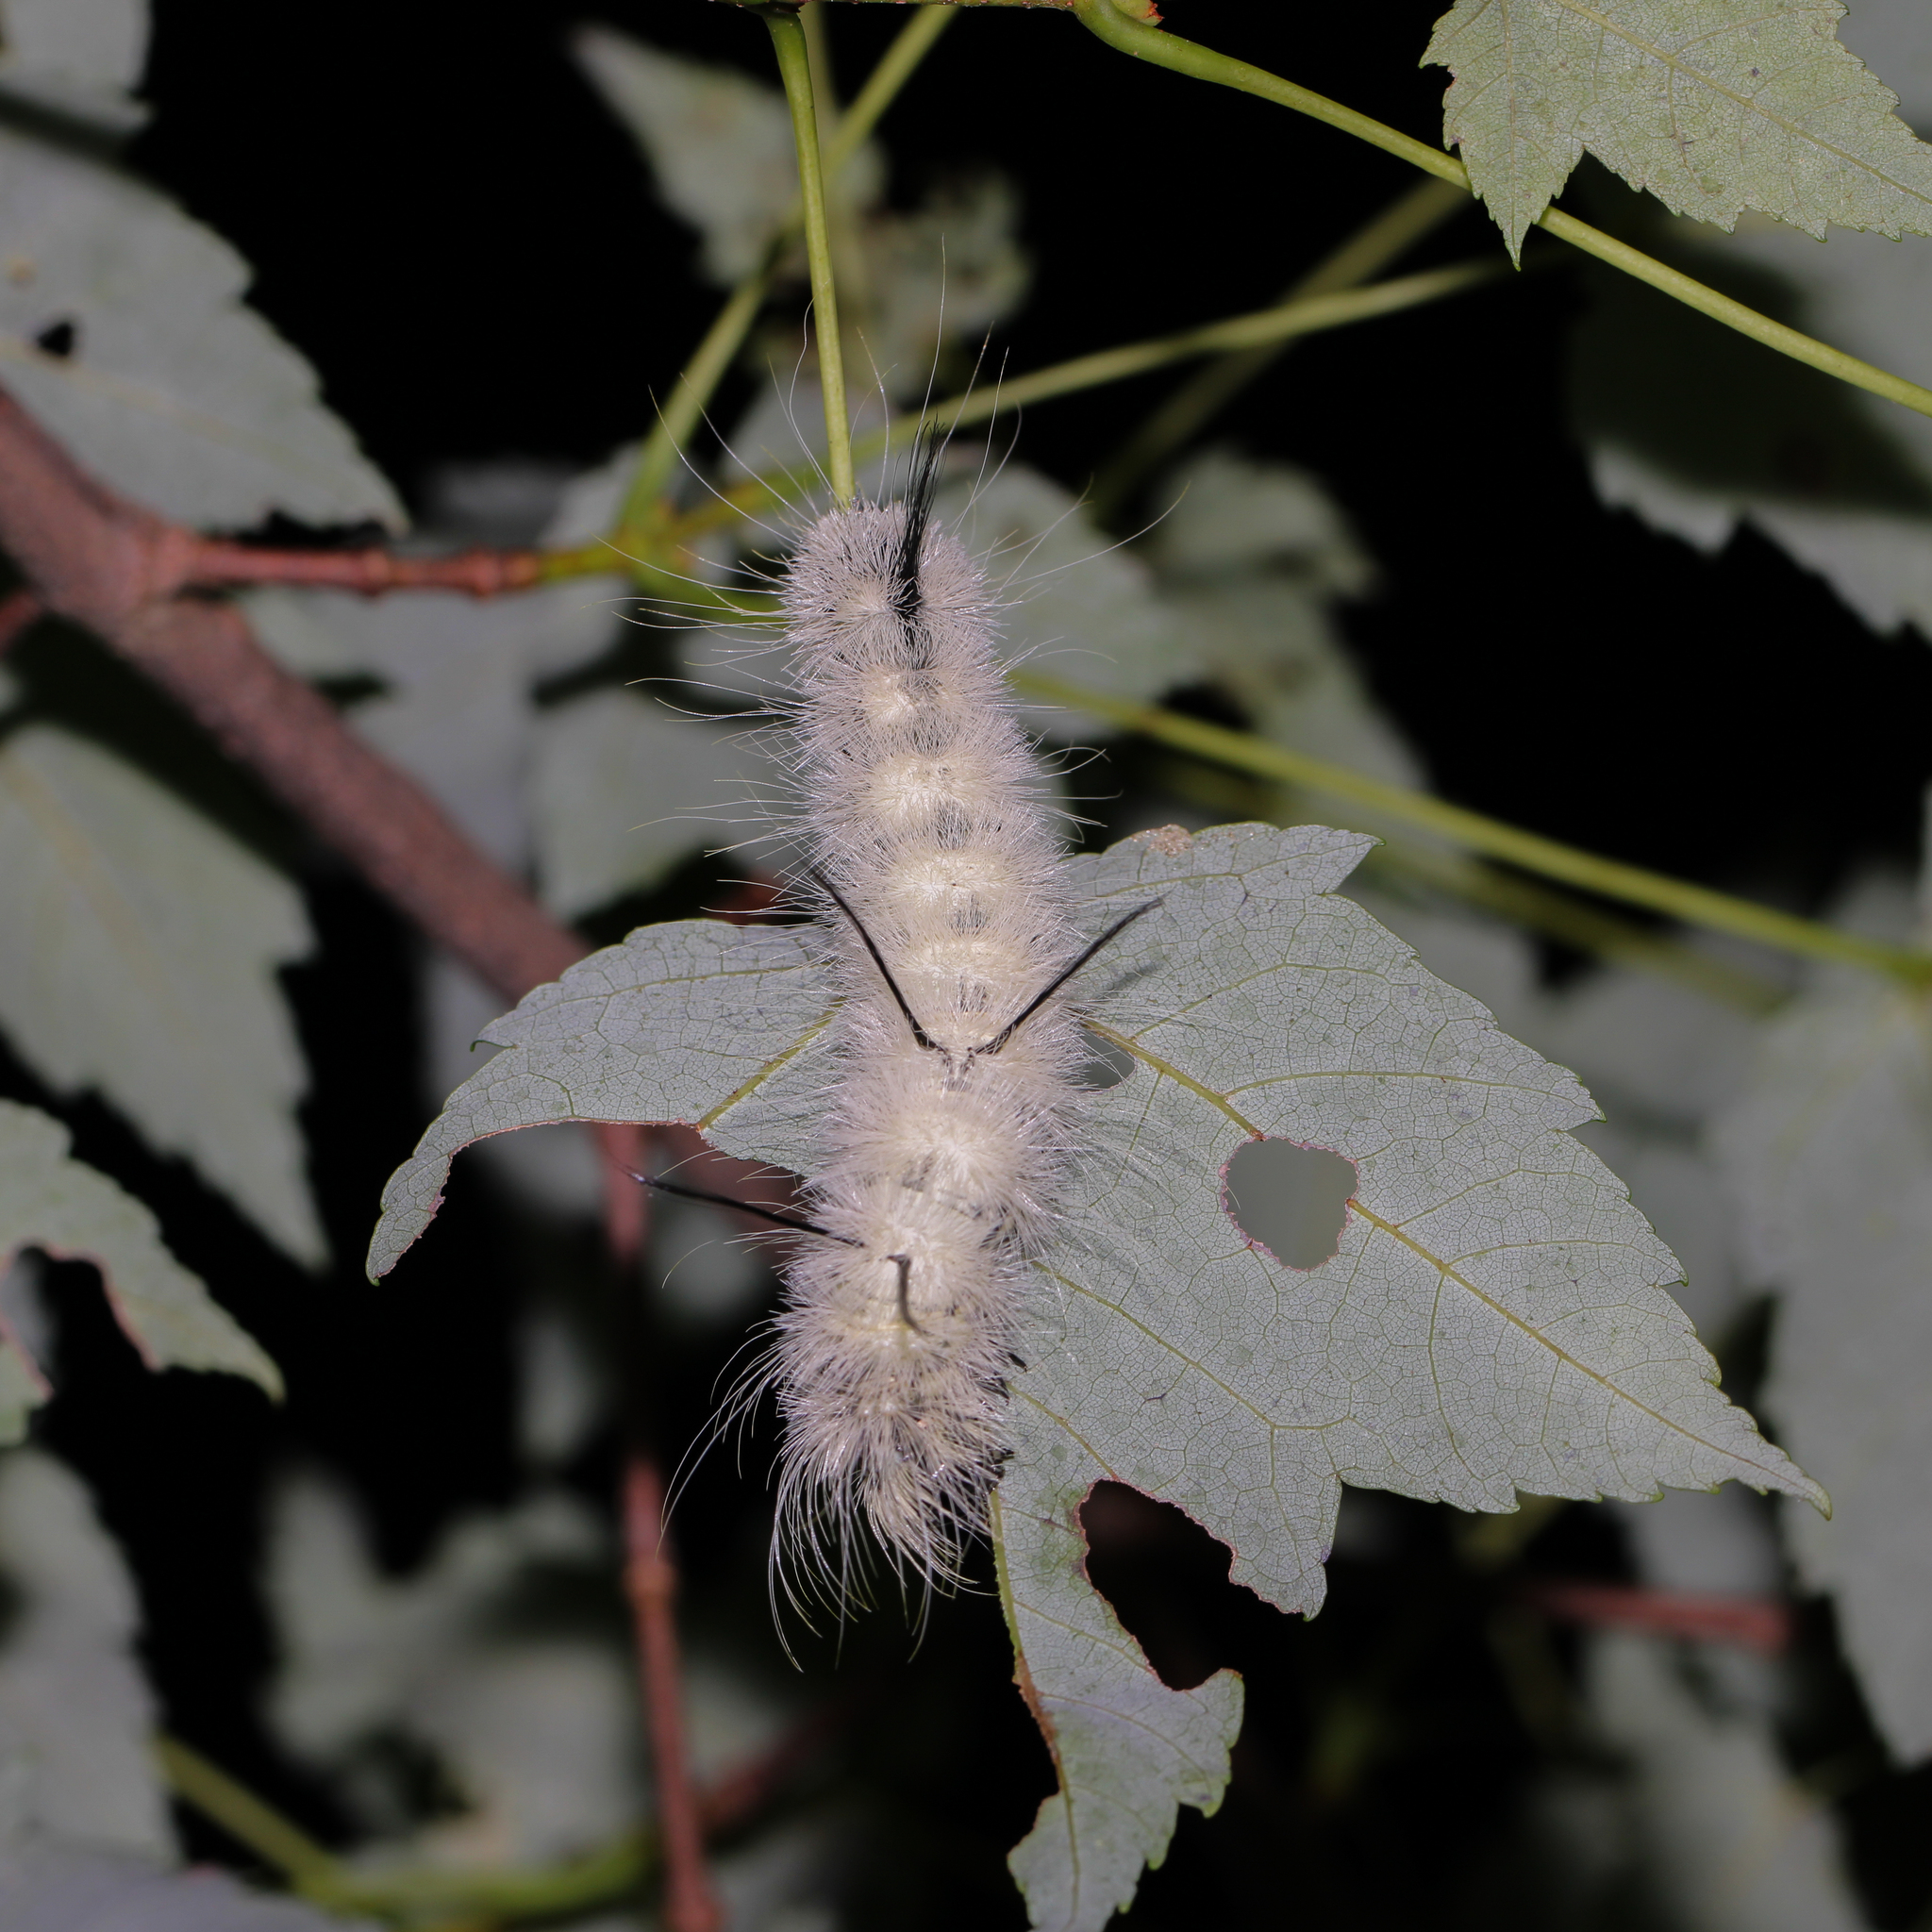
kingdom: Animalia
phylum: Arthropoda
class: Insecta
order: Lepidoptera
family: Noctuidae
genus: Acronicta
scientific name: Acronicta americana
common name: American dagger
